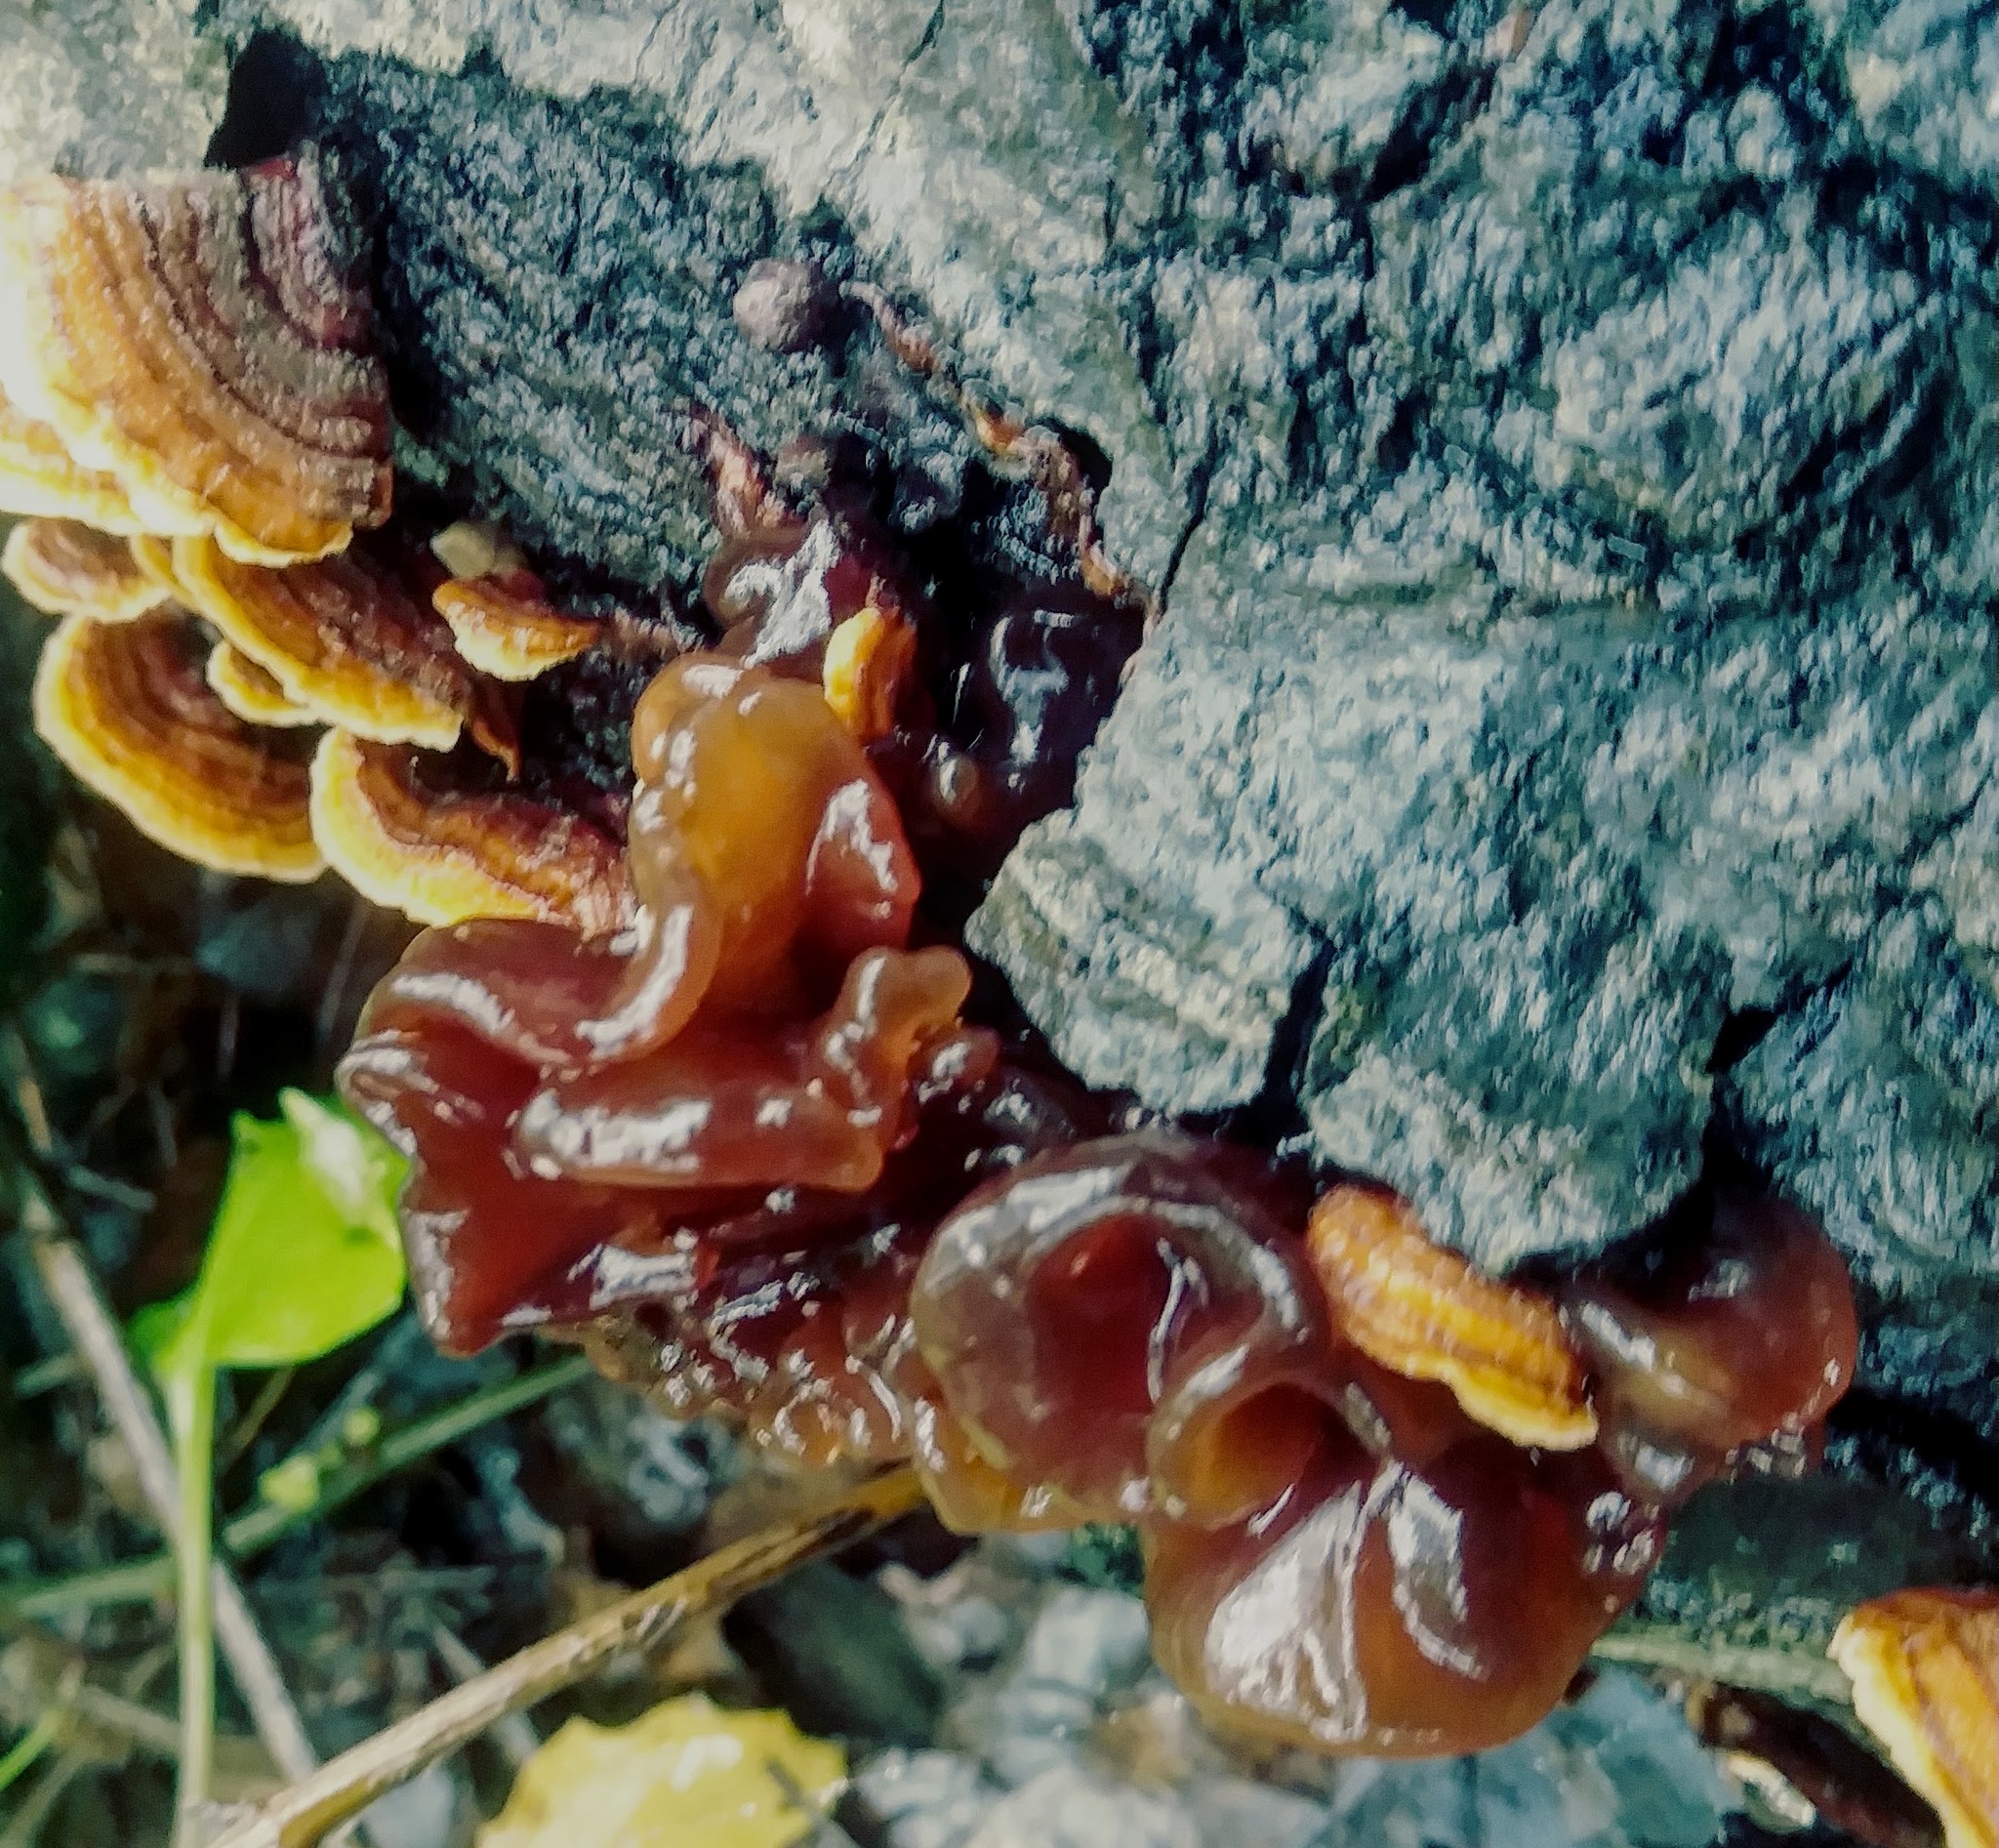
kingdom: Fungi
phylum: Basidiomycota
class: Tremellomycetes
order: Tremellales
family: Tremellaceae
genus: Phaeotremella
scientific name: Phaeotremella foliacea
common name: Leafy brain
